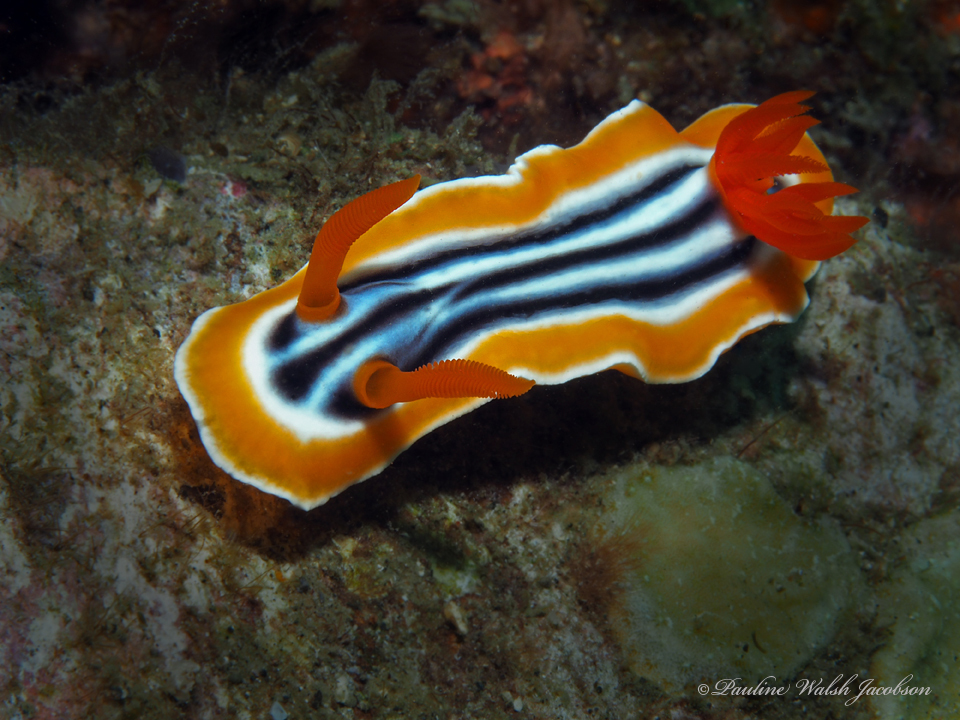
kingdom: Animalia
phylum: Mollusca
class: Gastropoda
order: Nudibranchia
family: Chromodorididae
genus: Chromodoris
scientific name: Chromodoris magnifica
